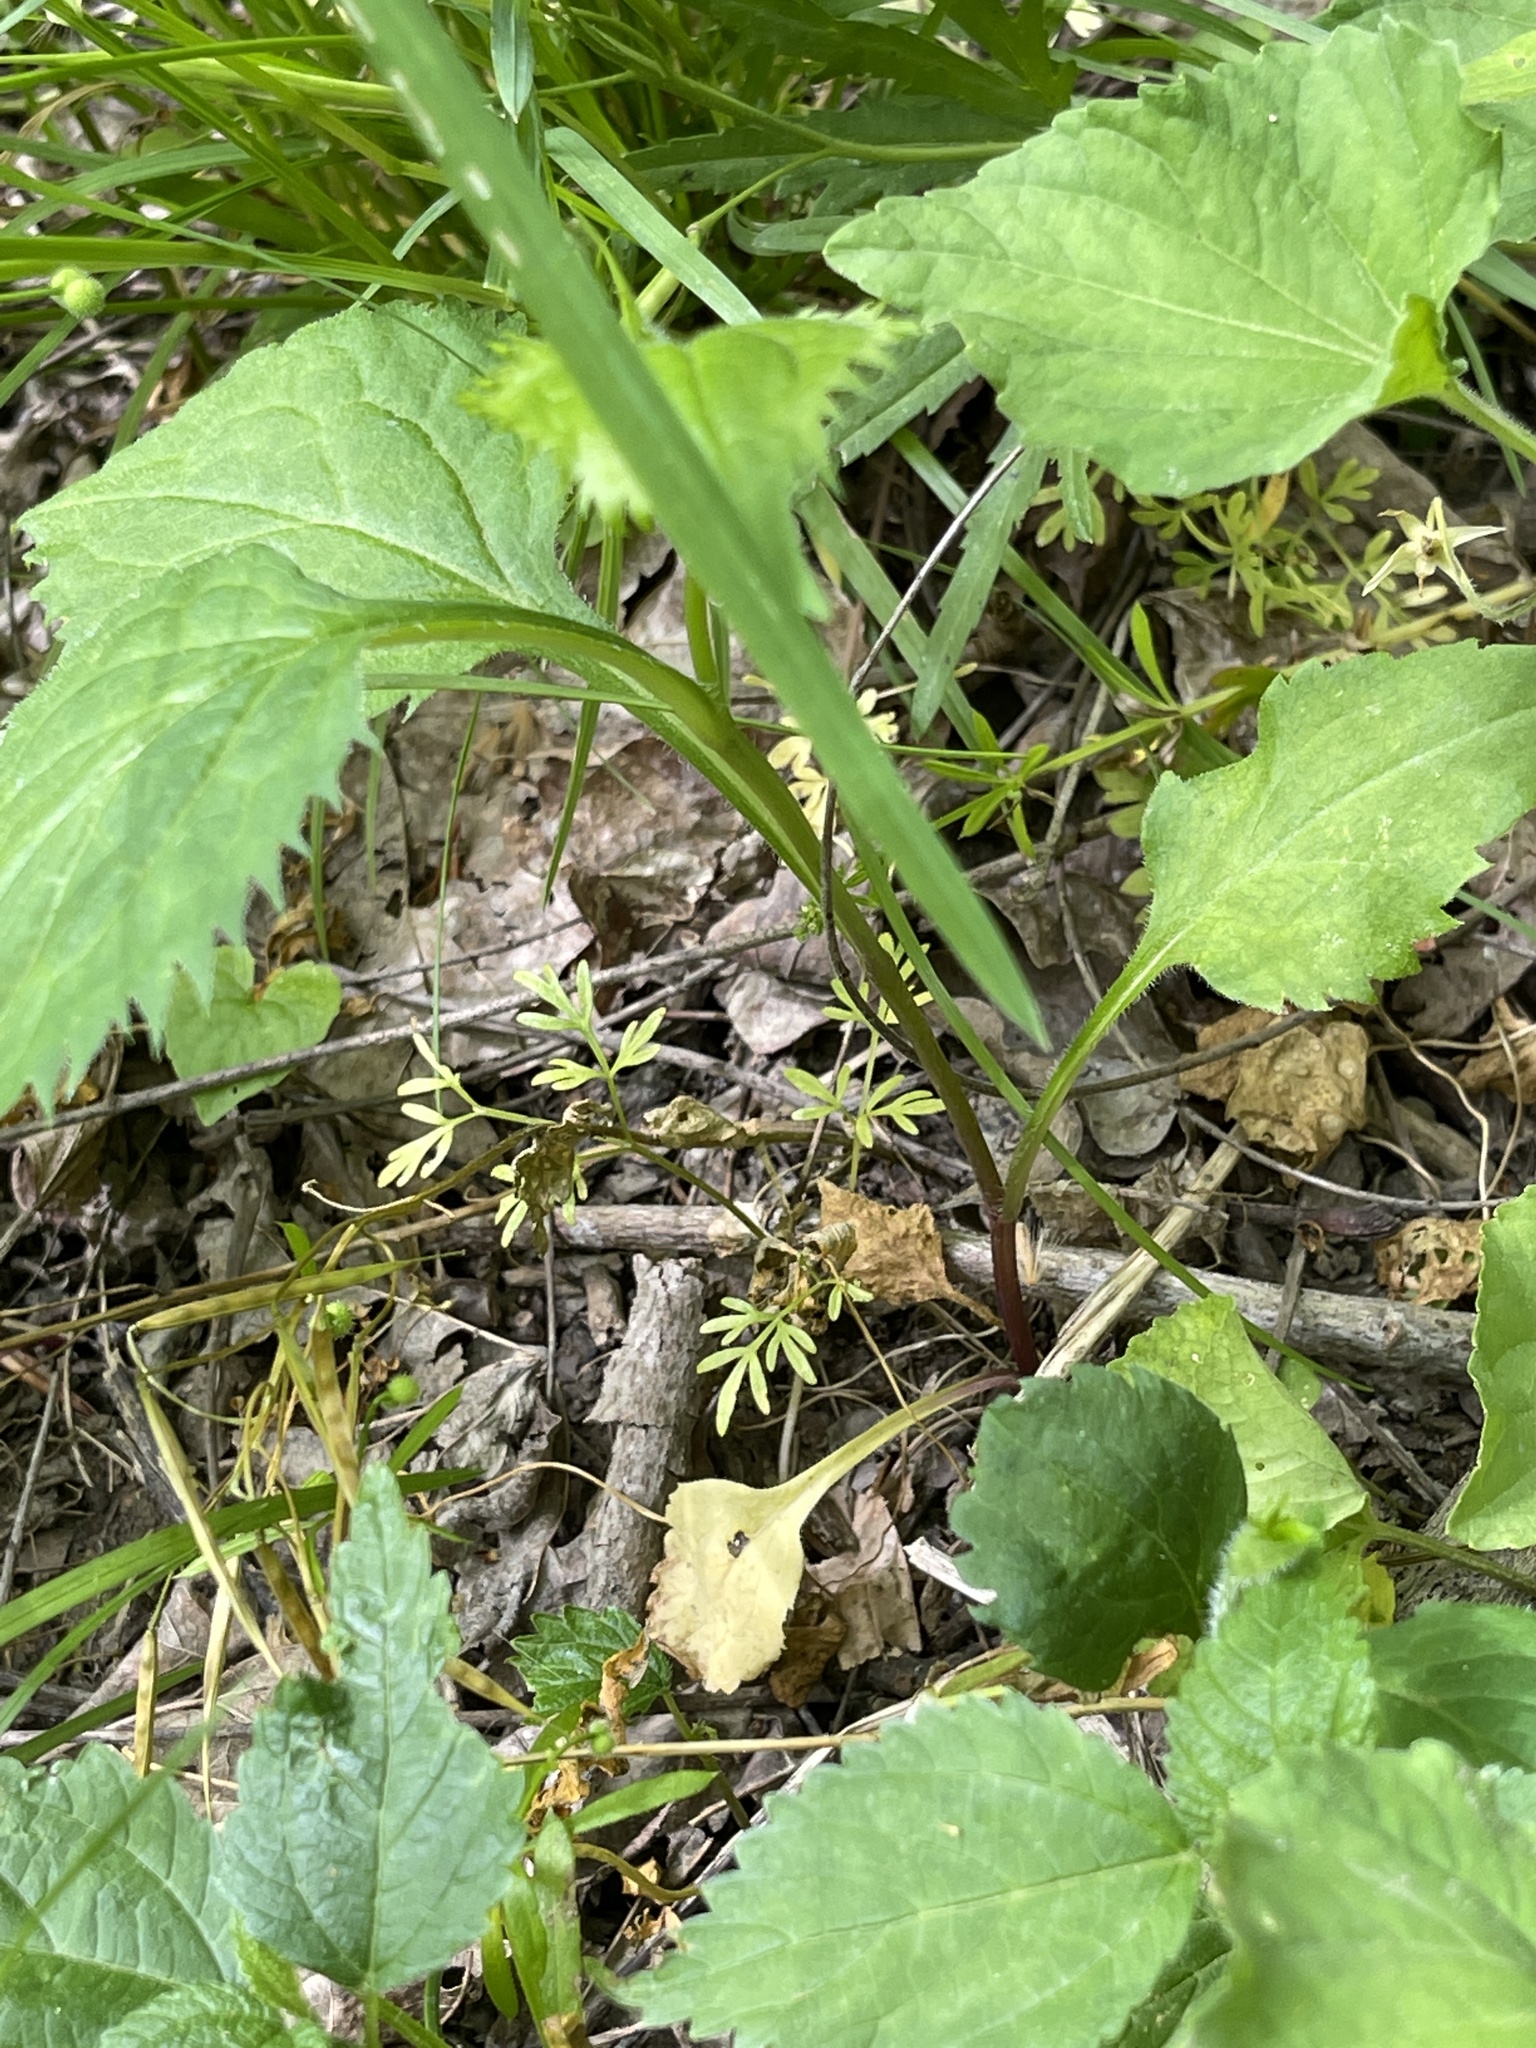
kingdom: Plantae
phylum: Tracheophyta
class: Magnoliopsida
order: Apiales
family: Apiaceae
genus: Erigenia
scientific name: Erigenia bulbosa
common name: Pepper-and-salt
